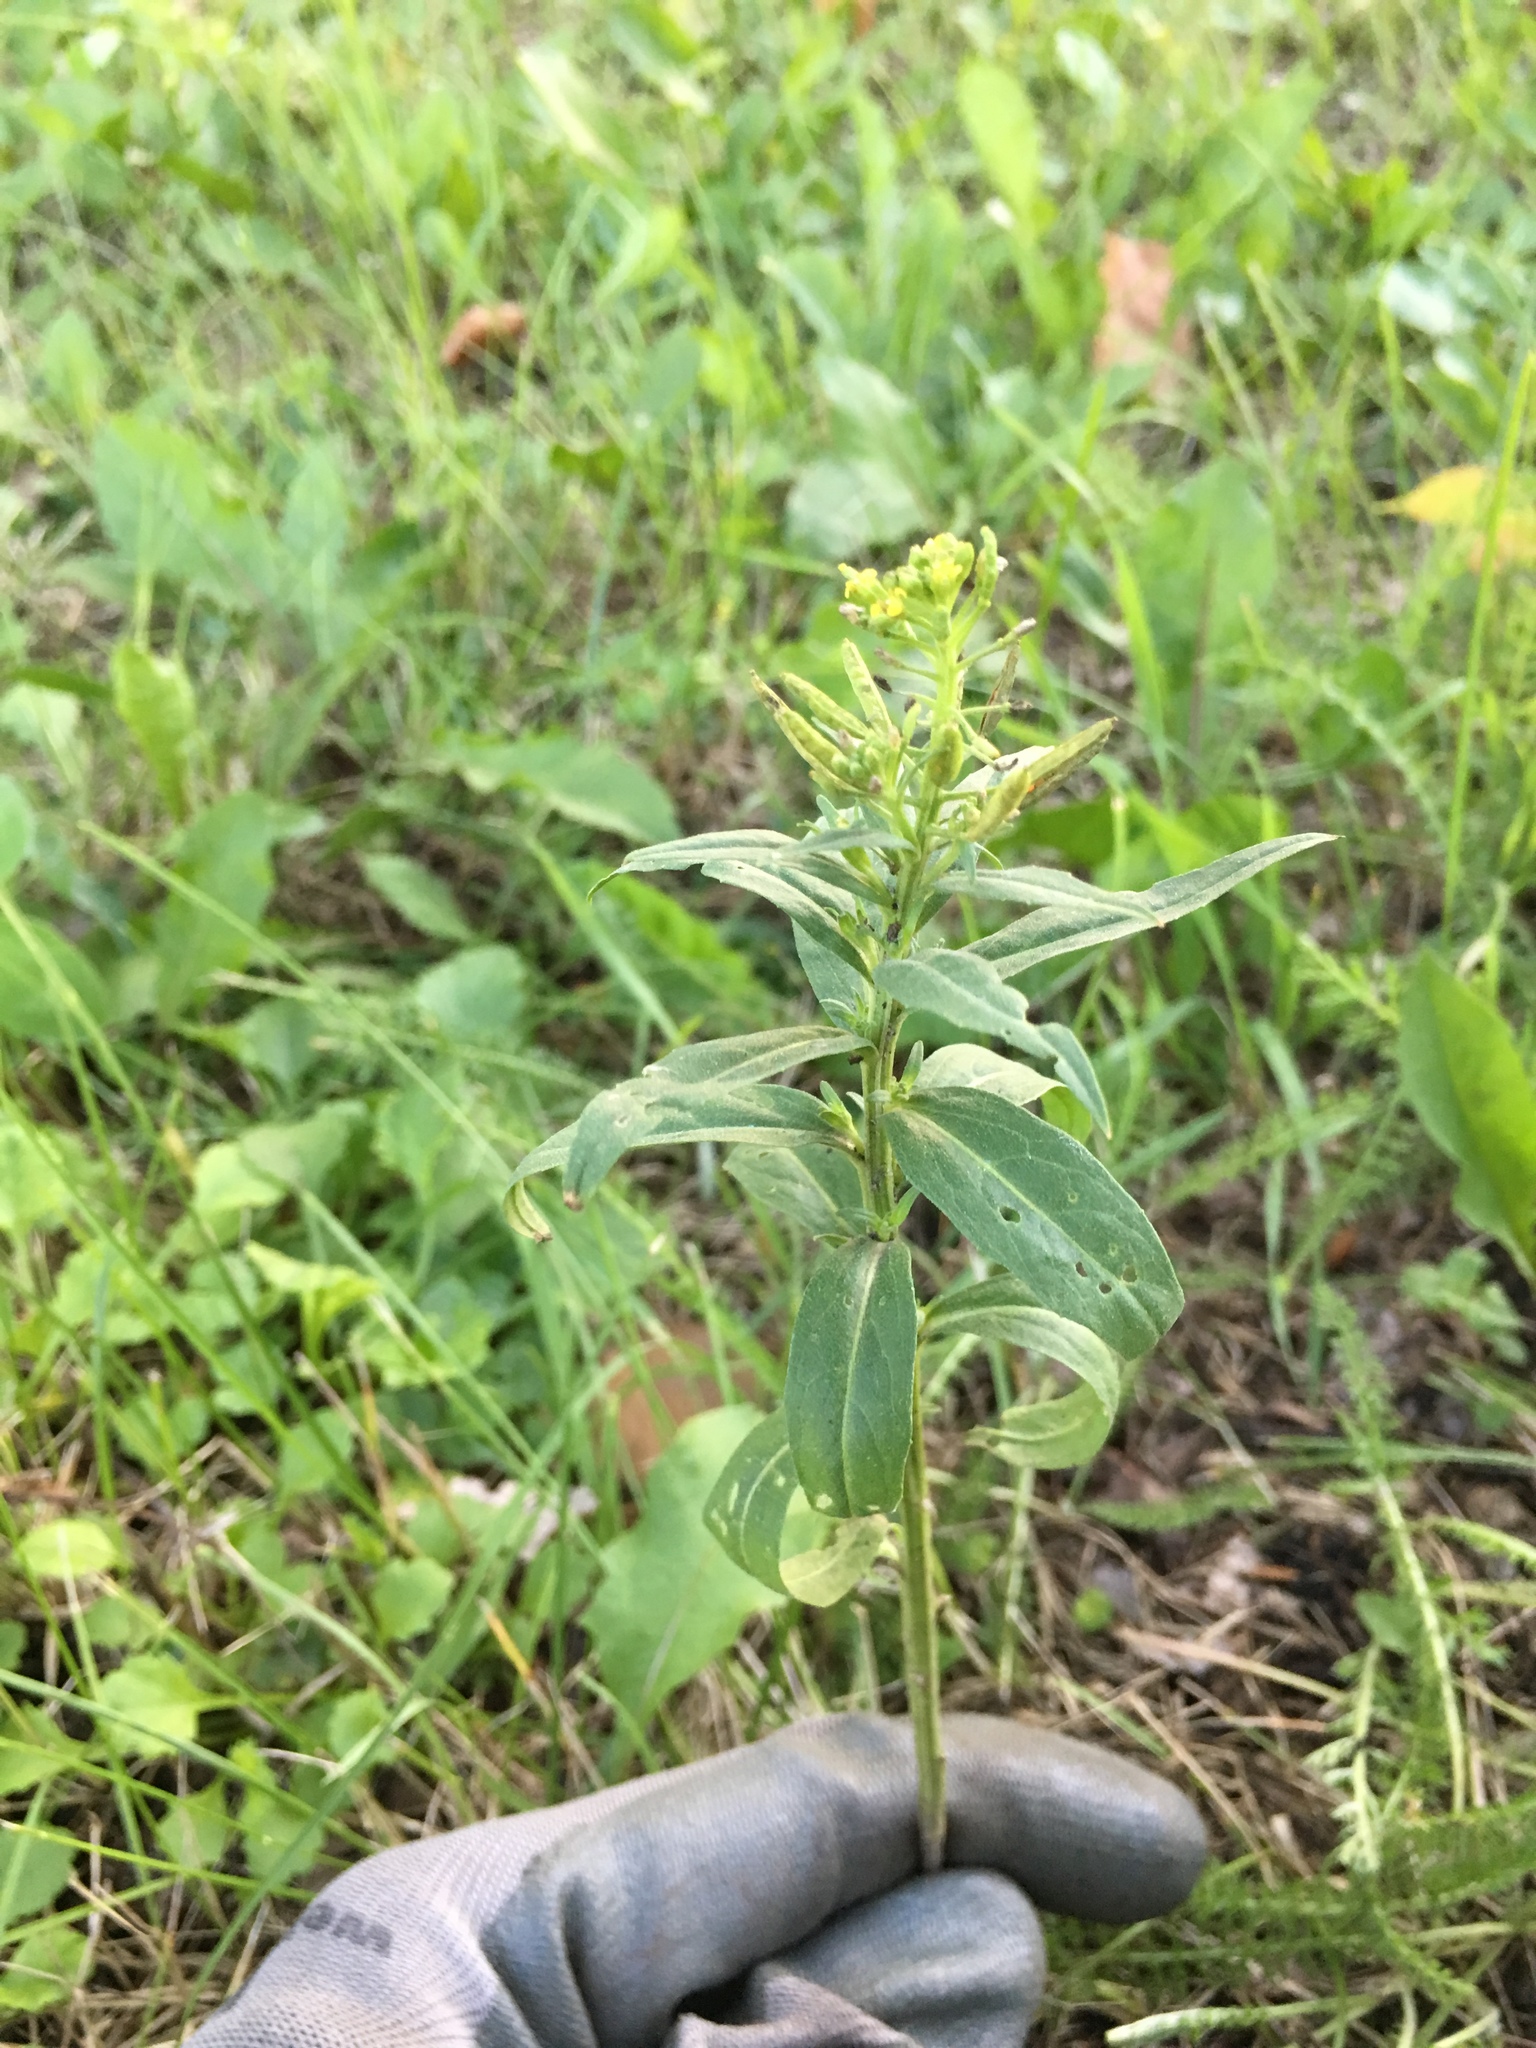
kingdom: Plantae
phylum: Tracheophyta
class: Magnoliopsida
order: Brassicales
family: Brassicaceae
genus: Erysimum
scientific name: Erysimum cheiranthoides
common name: Treacle mustard
